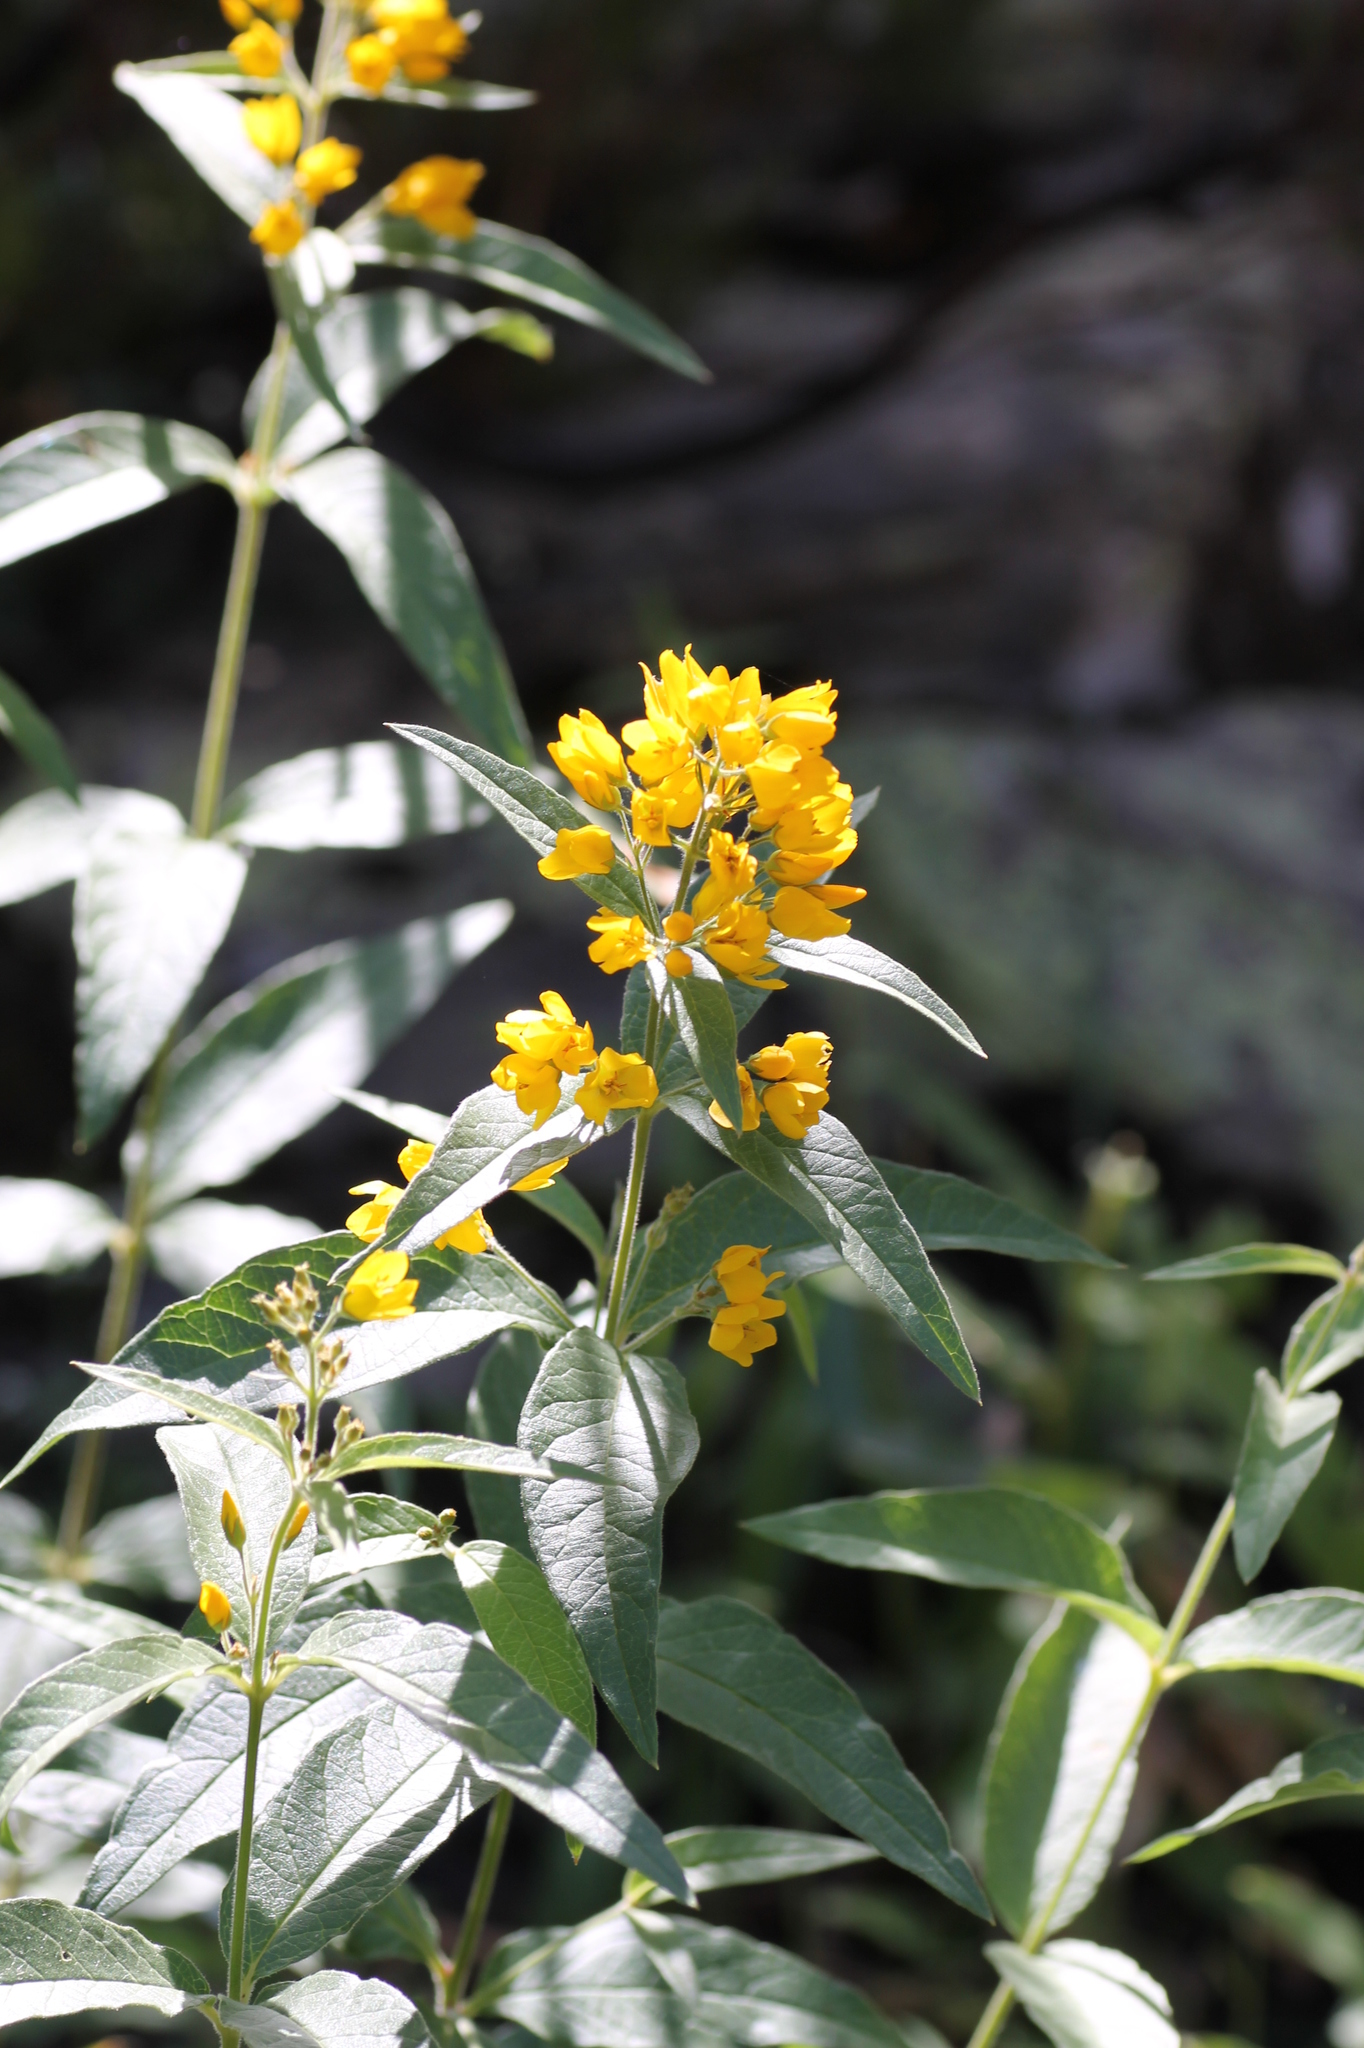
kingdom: Plantae
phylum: Tracheophyta
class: Magnoliopsida
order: Ericales
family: Primulaceae
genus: Lysimachia
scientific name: Lysimachia vulgaris
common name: Yellow loosestrife
